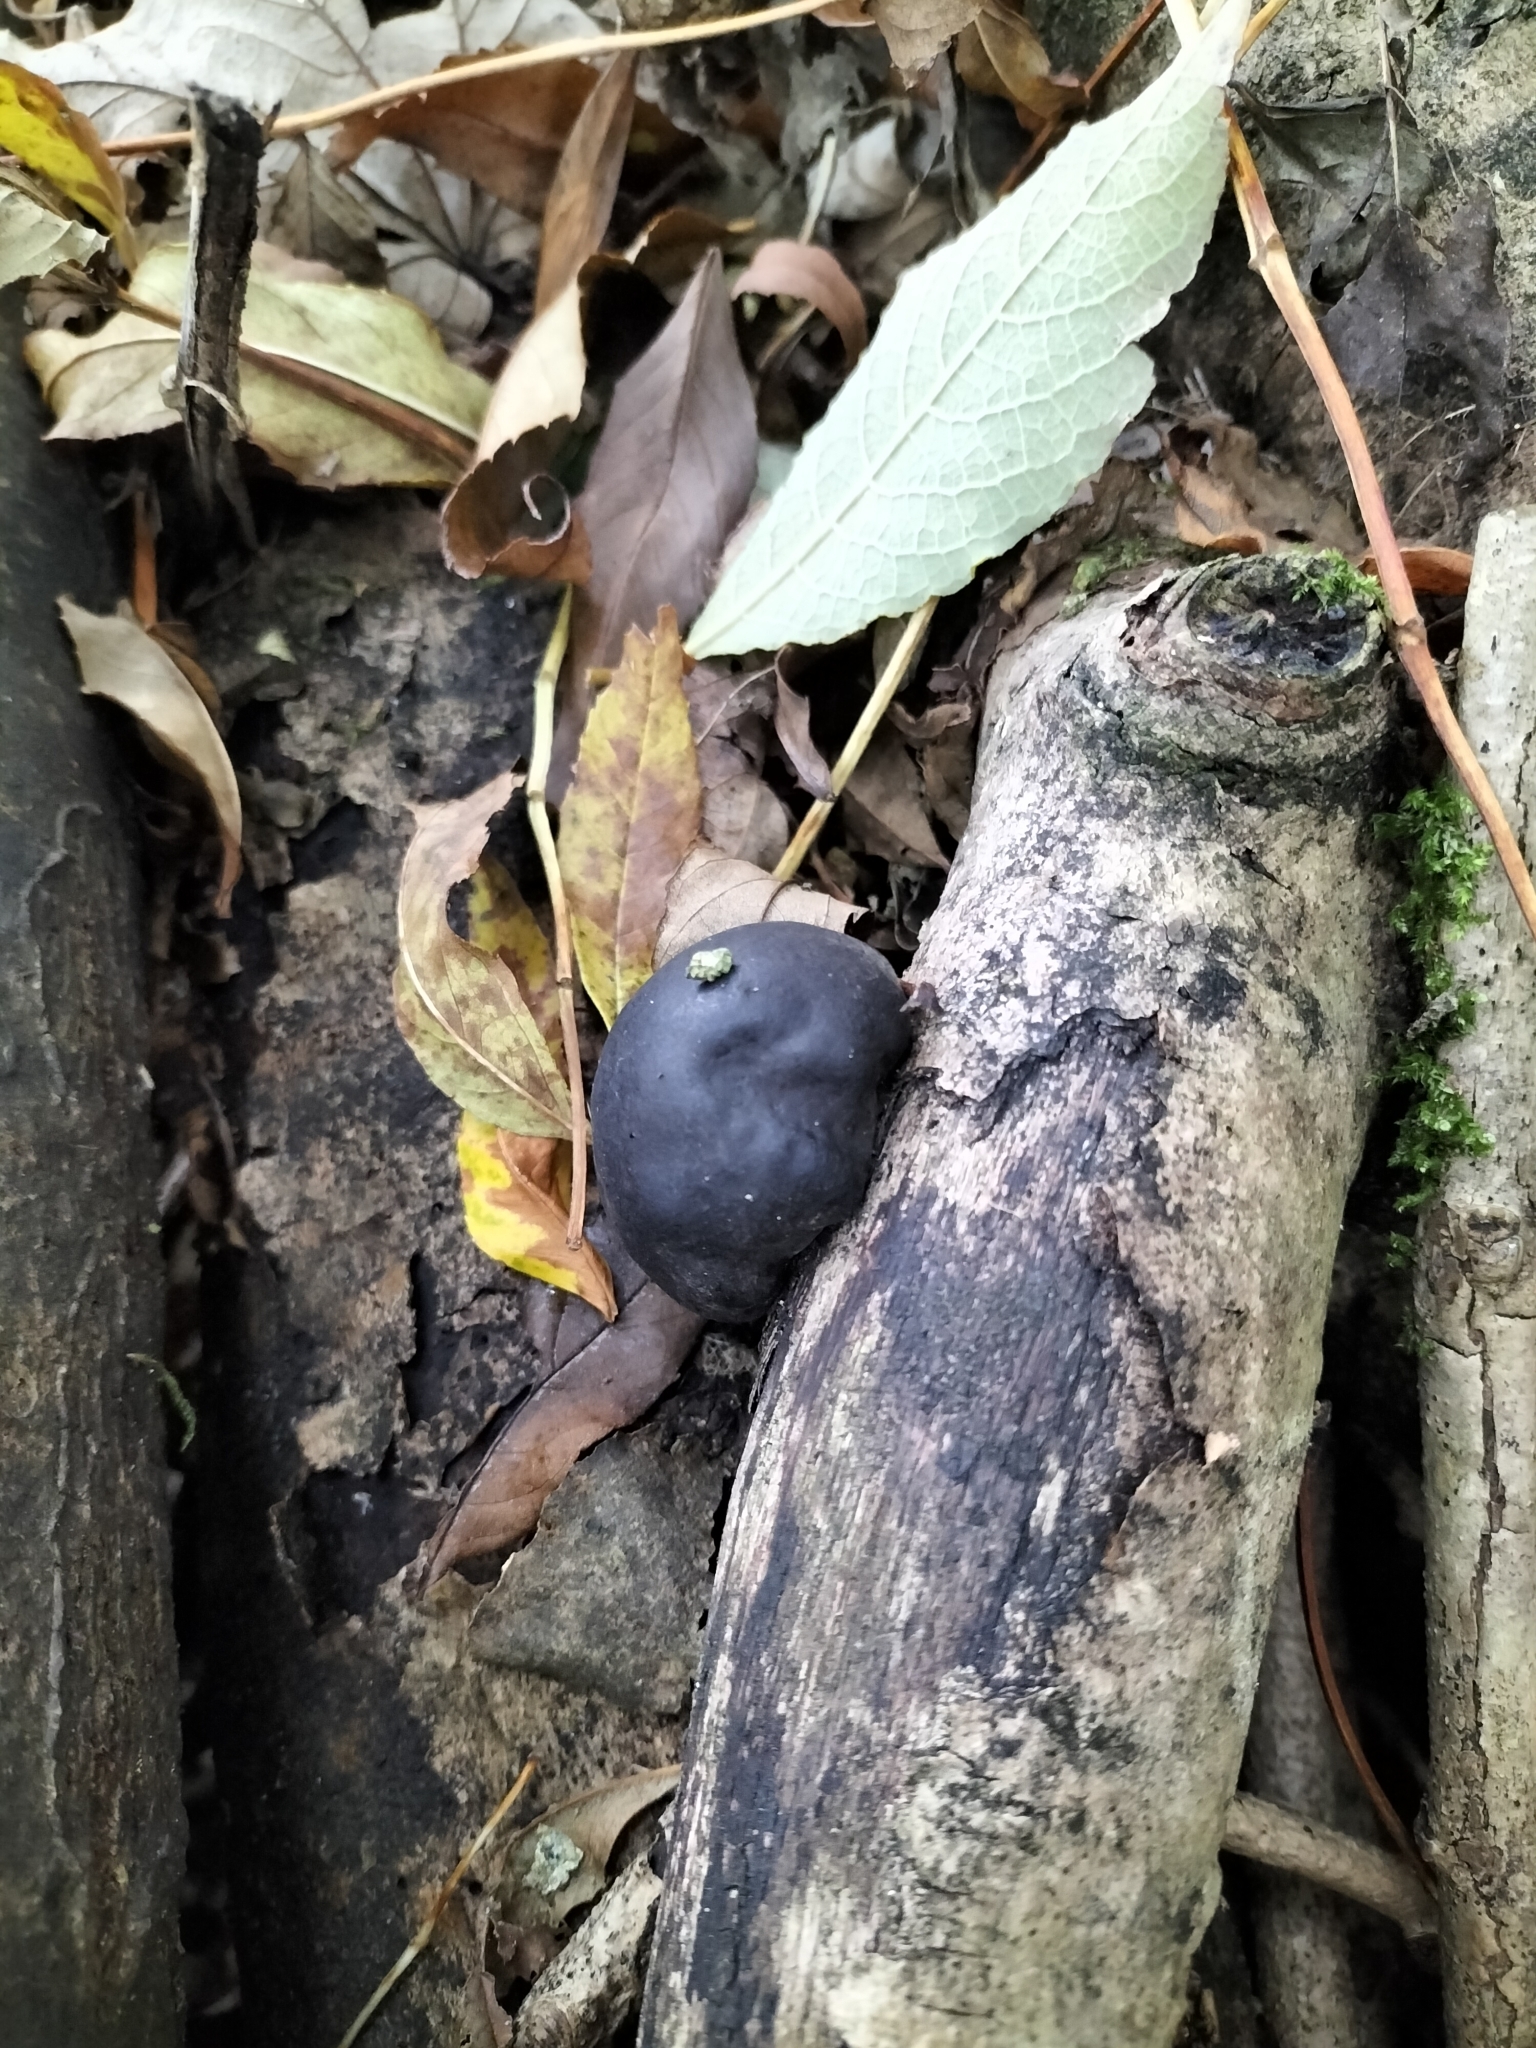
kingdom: Fungi
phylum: Ascomycota
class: Sordariomycetes
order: Xylariales
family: Hypoxylaceae
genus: Daldinia
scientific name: Daldinia concentrica
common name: Cramp balls
